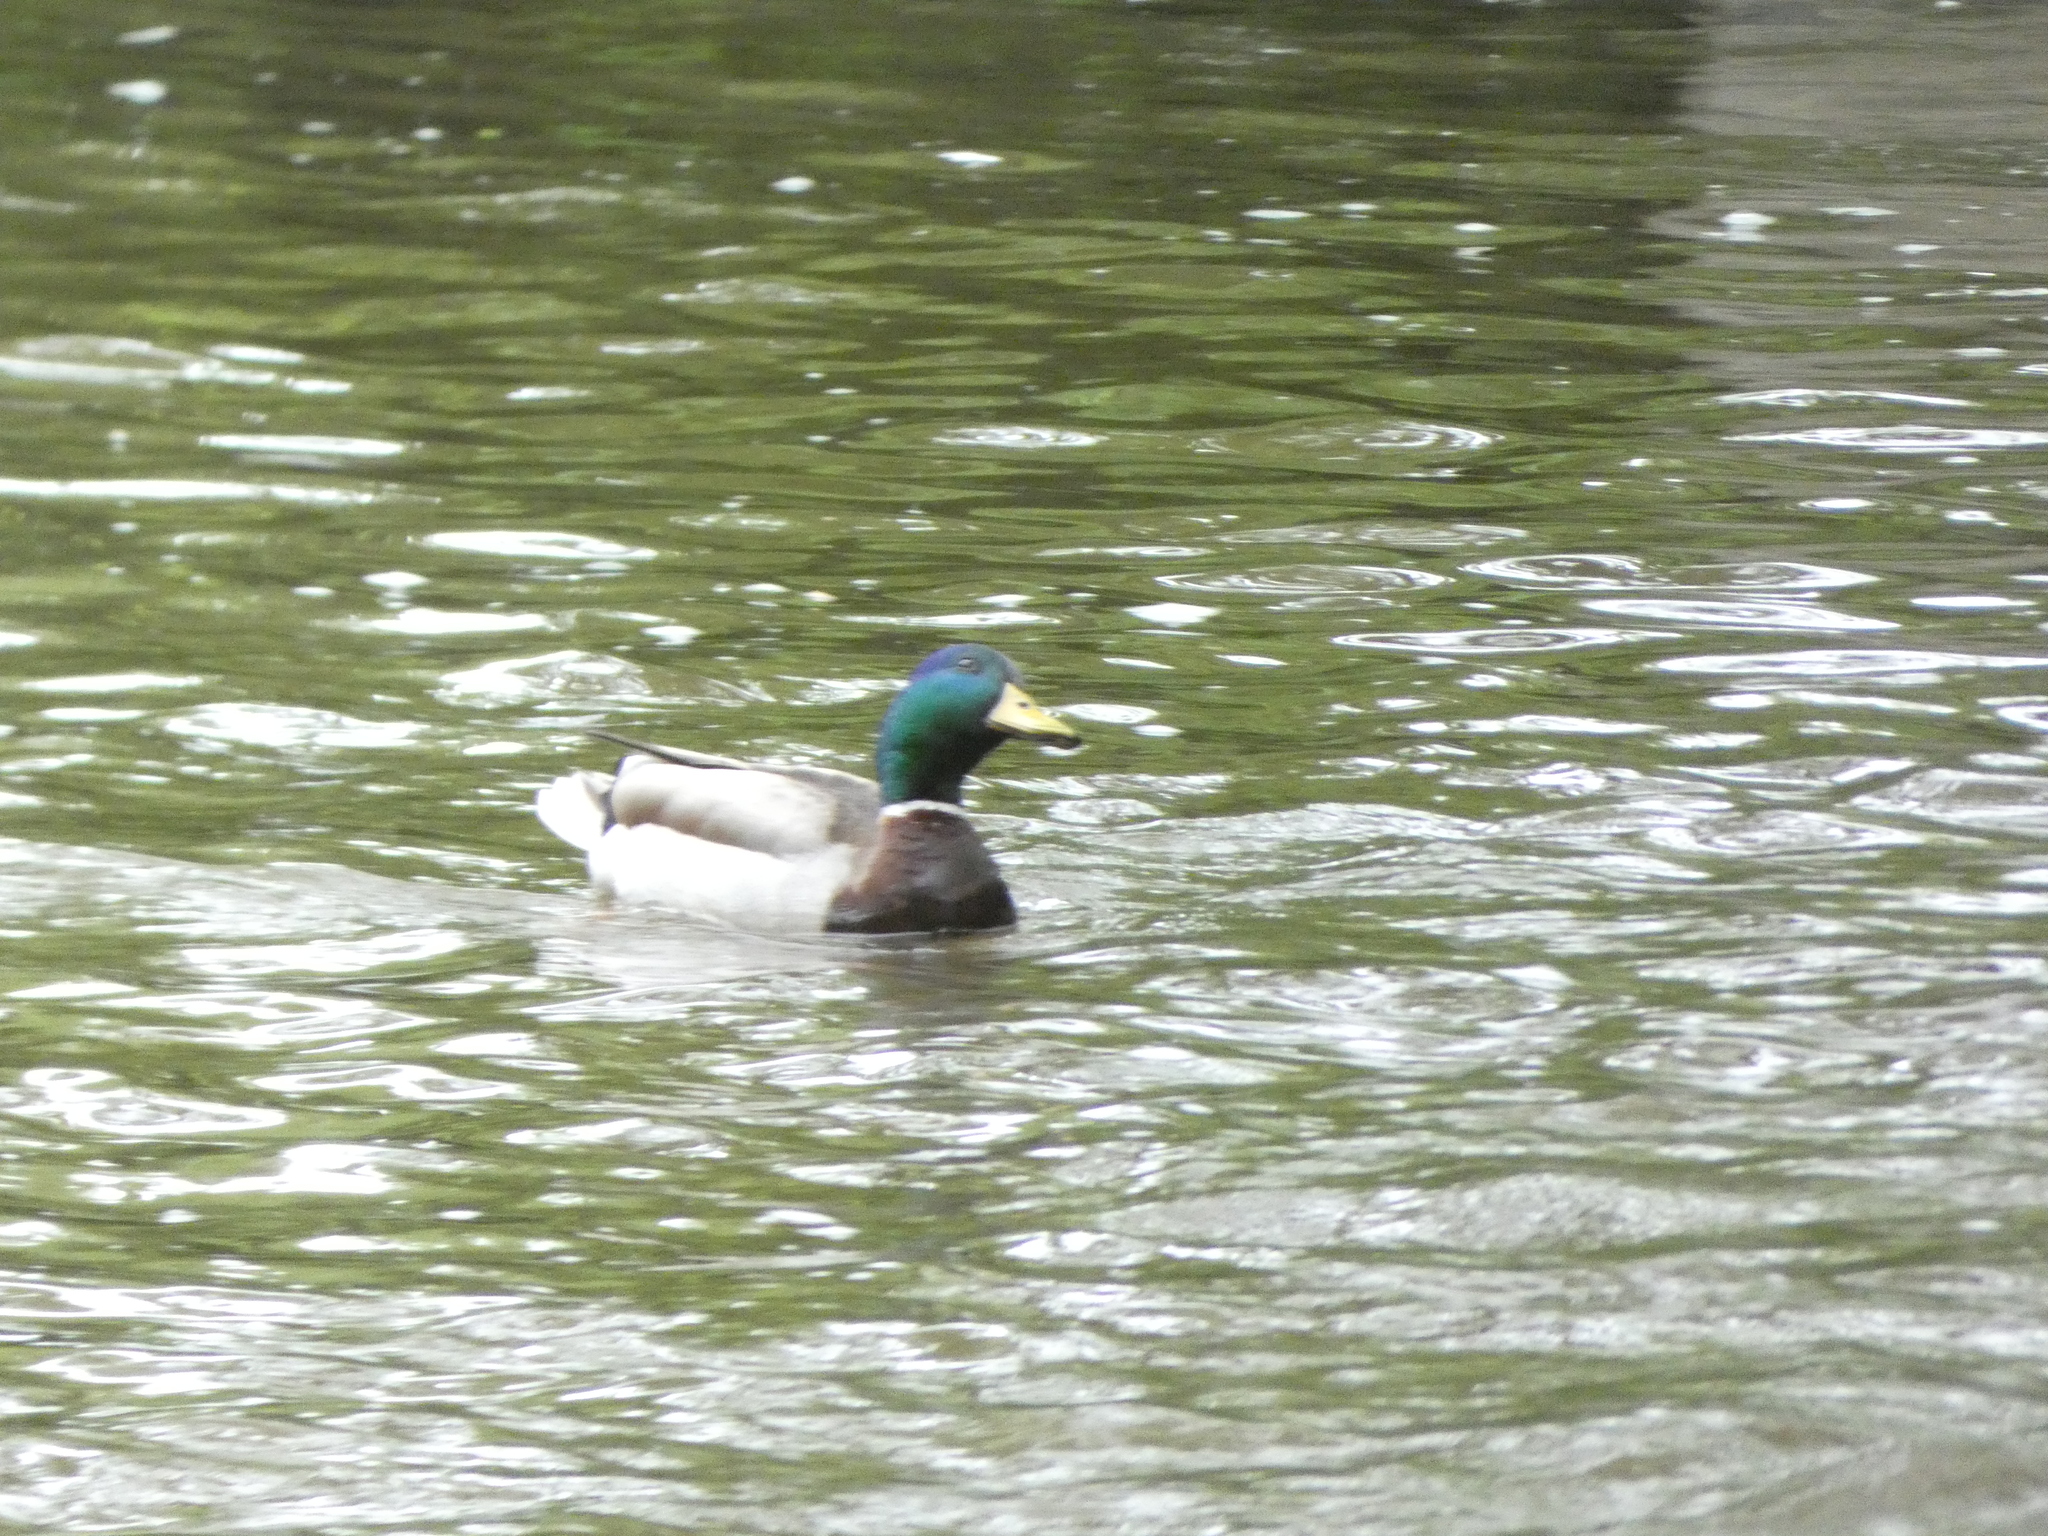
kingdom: Animalia
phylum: Chordata
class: Aves
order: Anseriformes
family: Anatidae
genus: Anas
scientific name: Anas platyrhynchos
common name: Mallard
